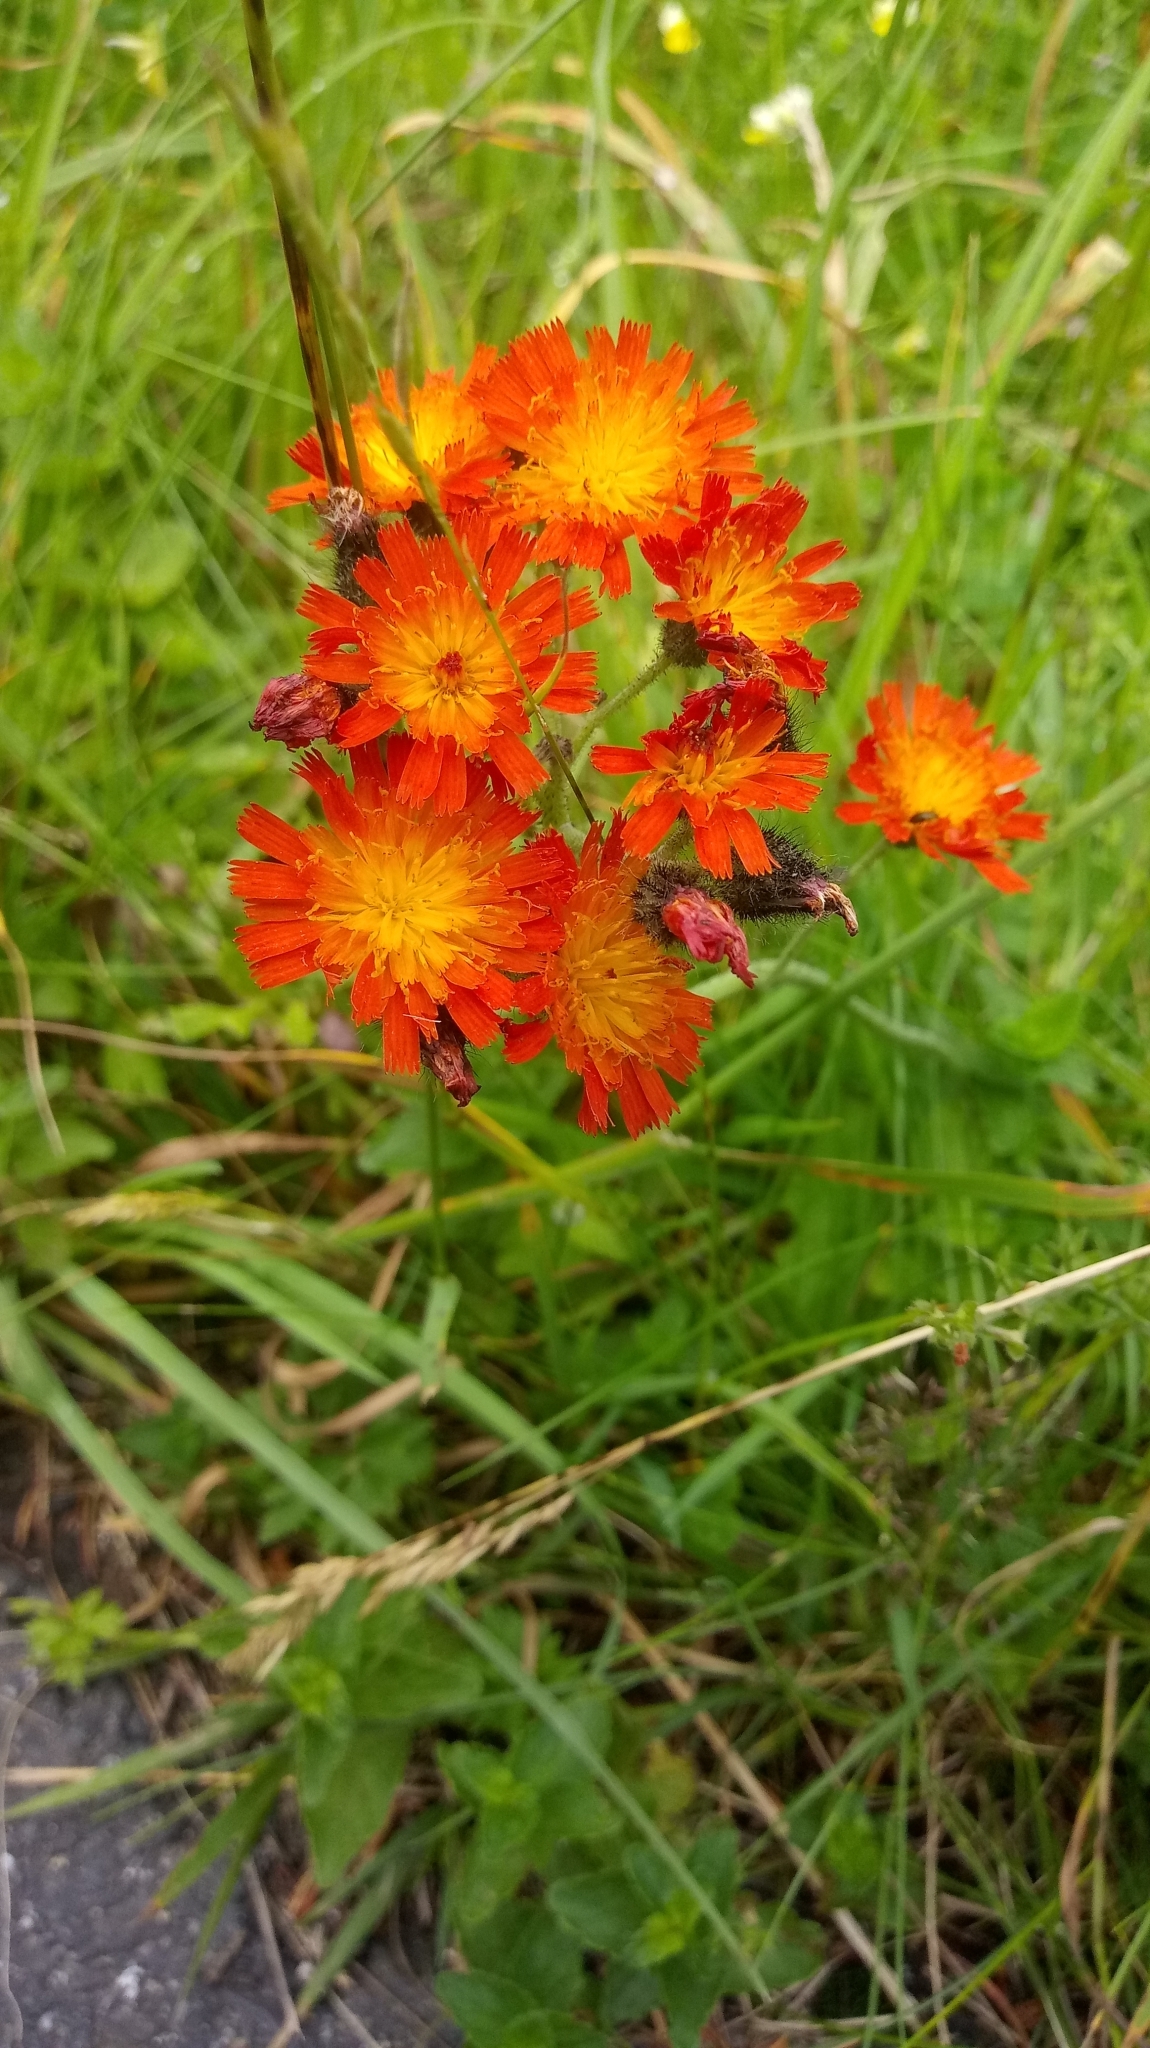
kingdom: Plantae
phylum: Tracheophyta
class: Magnoliopsida
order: Asterales
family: Asteraceae
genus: Pilosella
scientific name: Pilosella aurantiaca
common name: Fox-and-cubs
